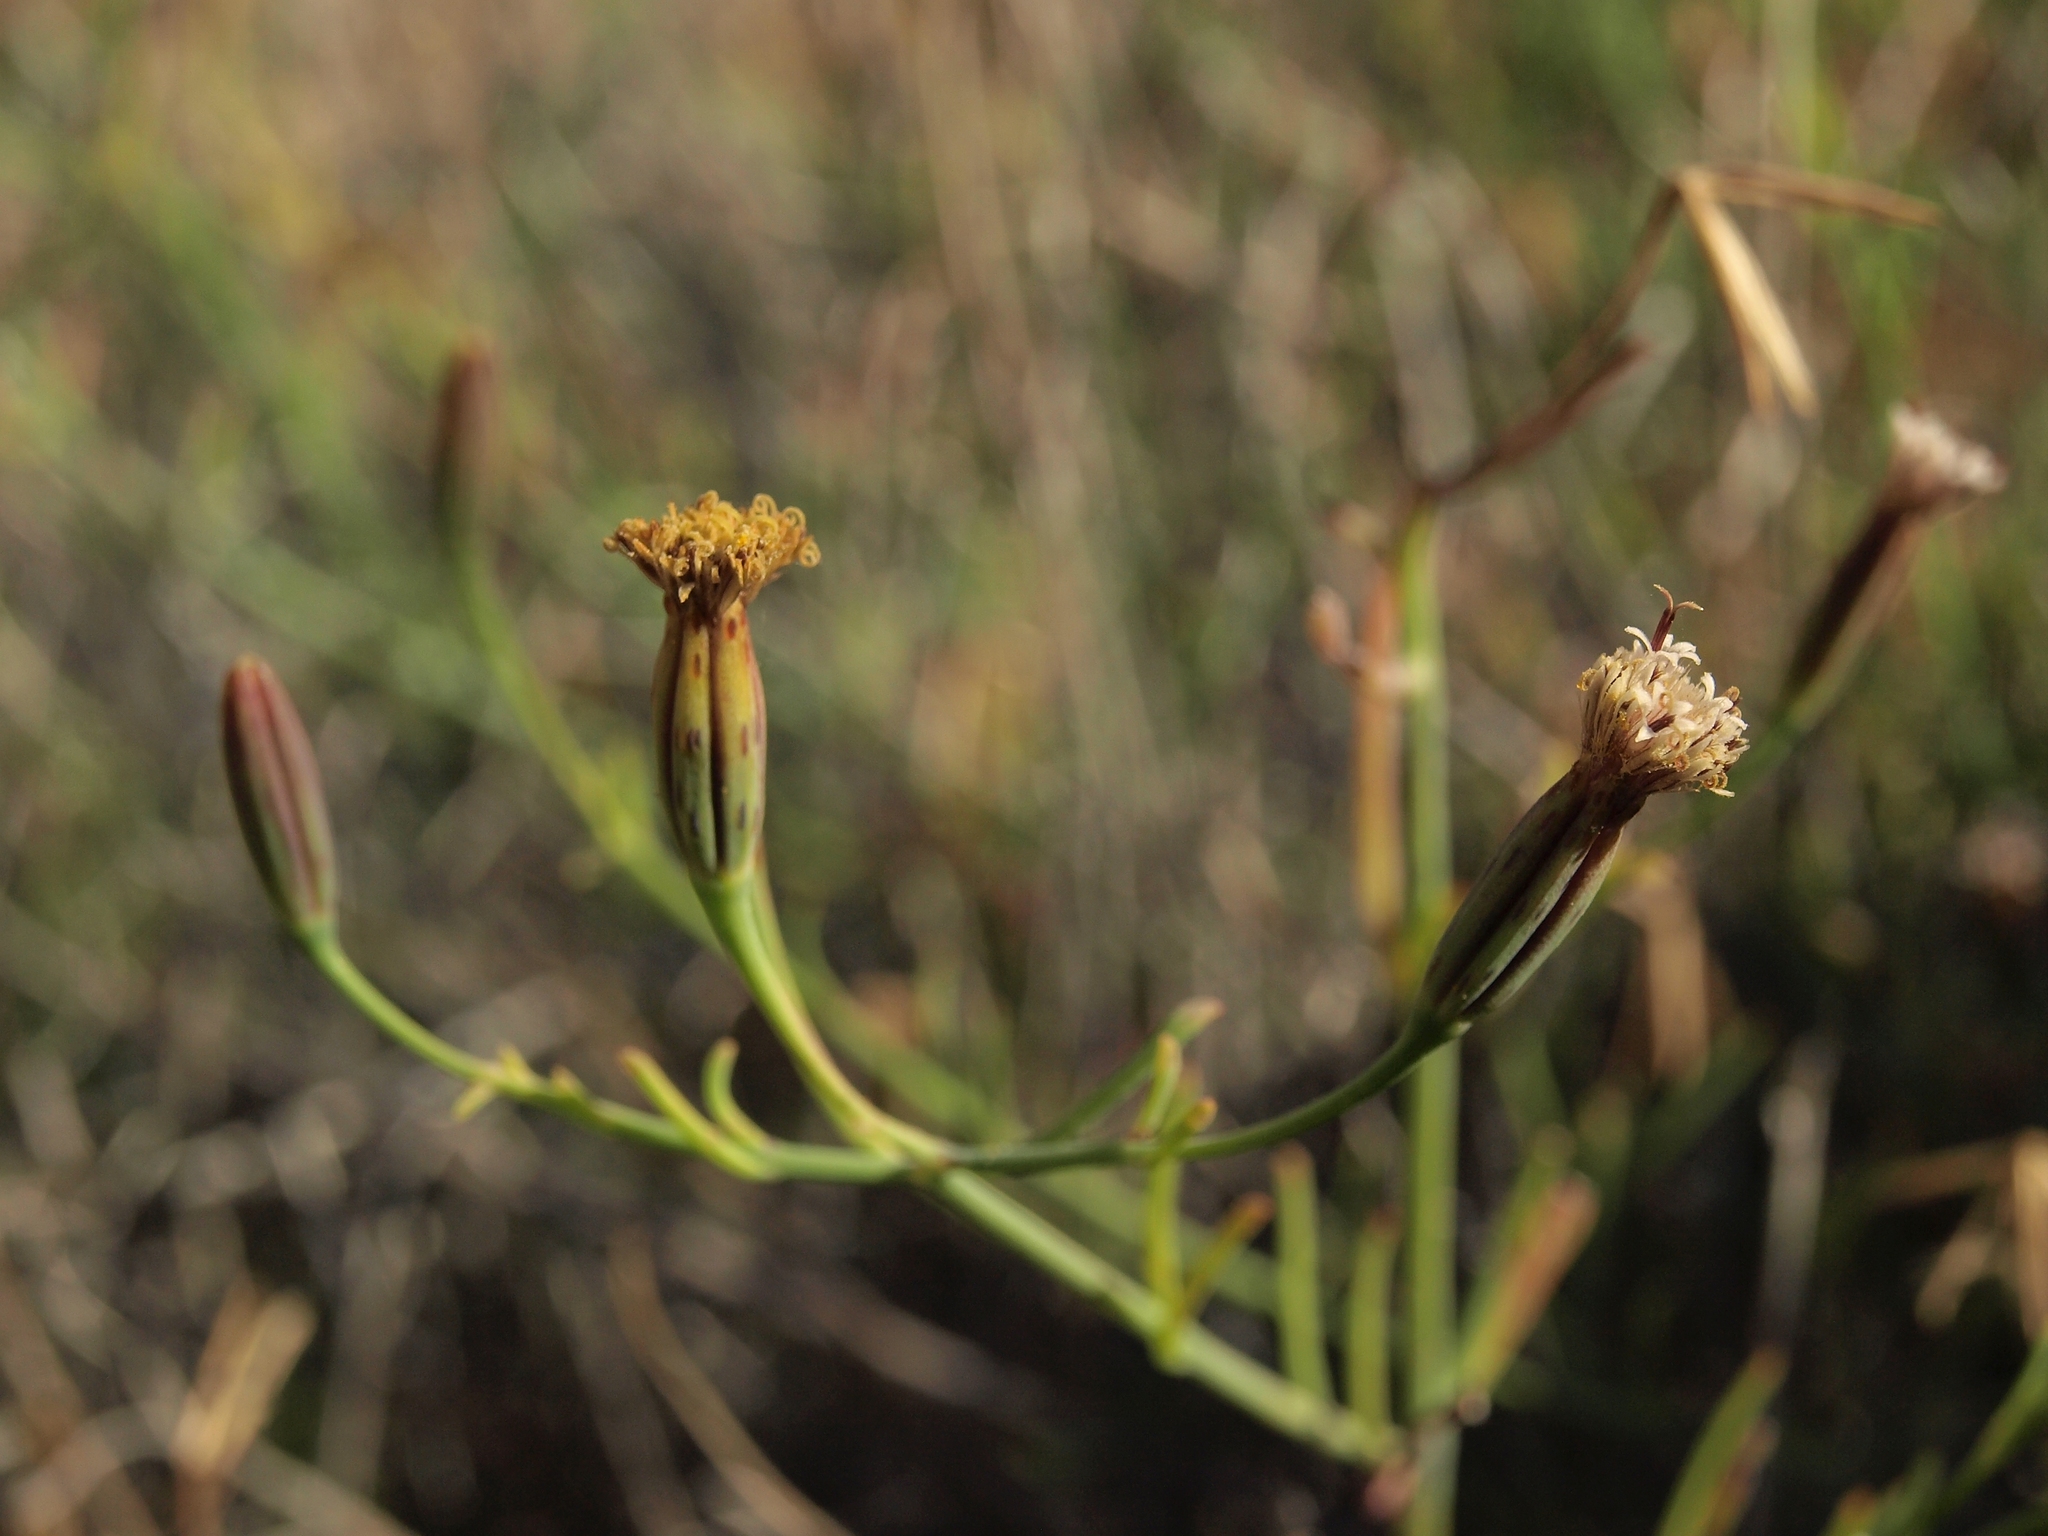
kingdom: Plantae
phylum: Tracheophyta
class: Magnoliopsida
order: Asterales
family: Asteraceae
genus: Porophyllum
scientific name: Porophyllum gracile
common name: Odora
